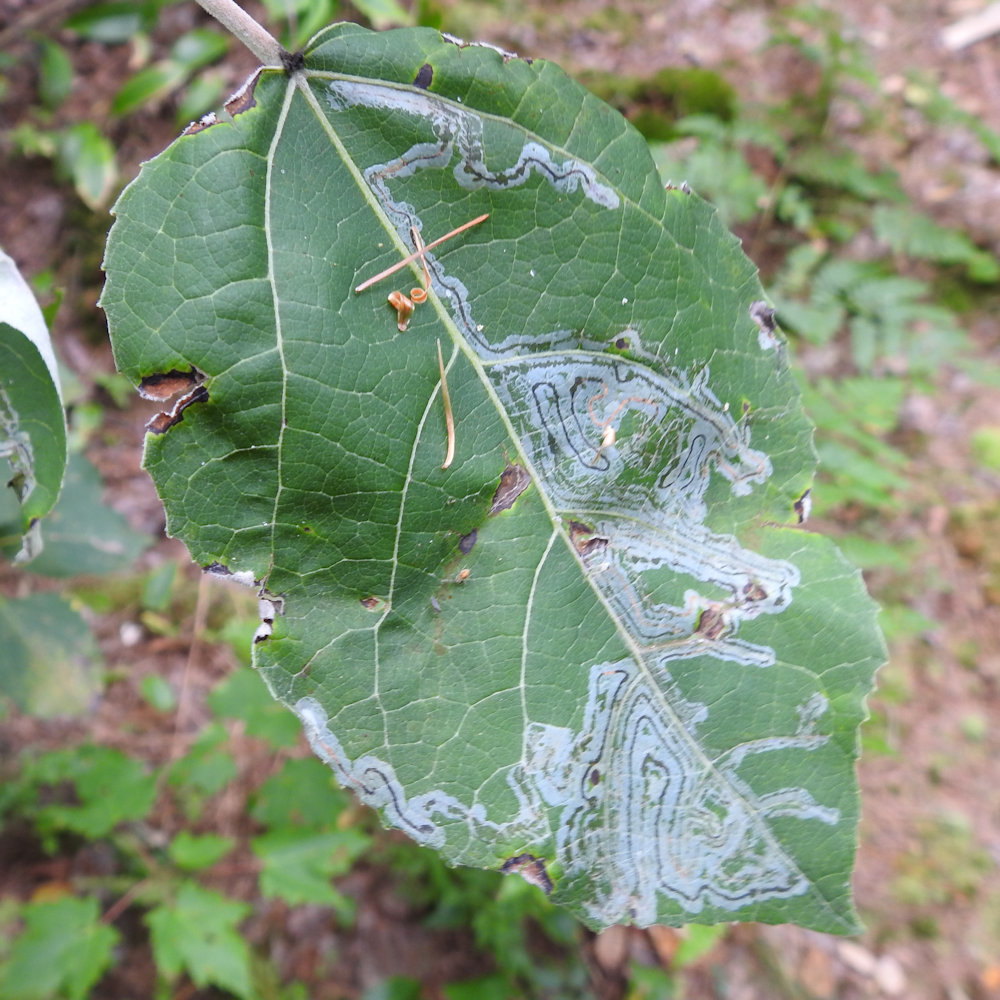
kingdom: Animalia
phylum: Arthropoda
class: Insecta
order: Lepidoptera
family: Gracillariidae
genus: Phyllocnistis
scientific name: Phyllocnistis populiella
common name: Aspen serpentine leafminer moth
